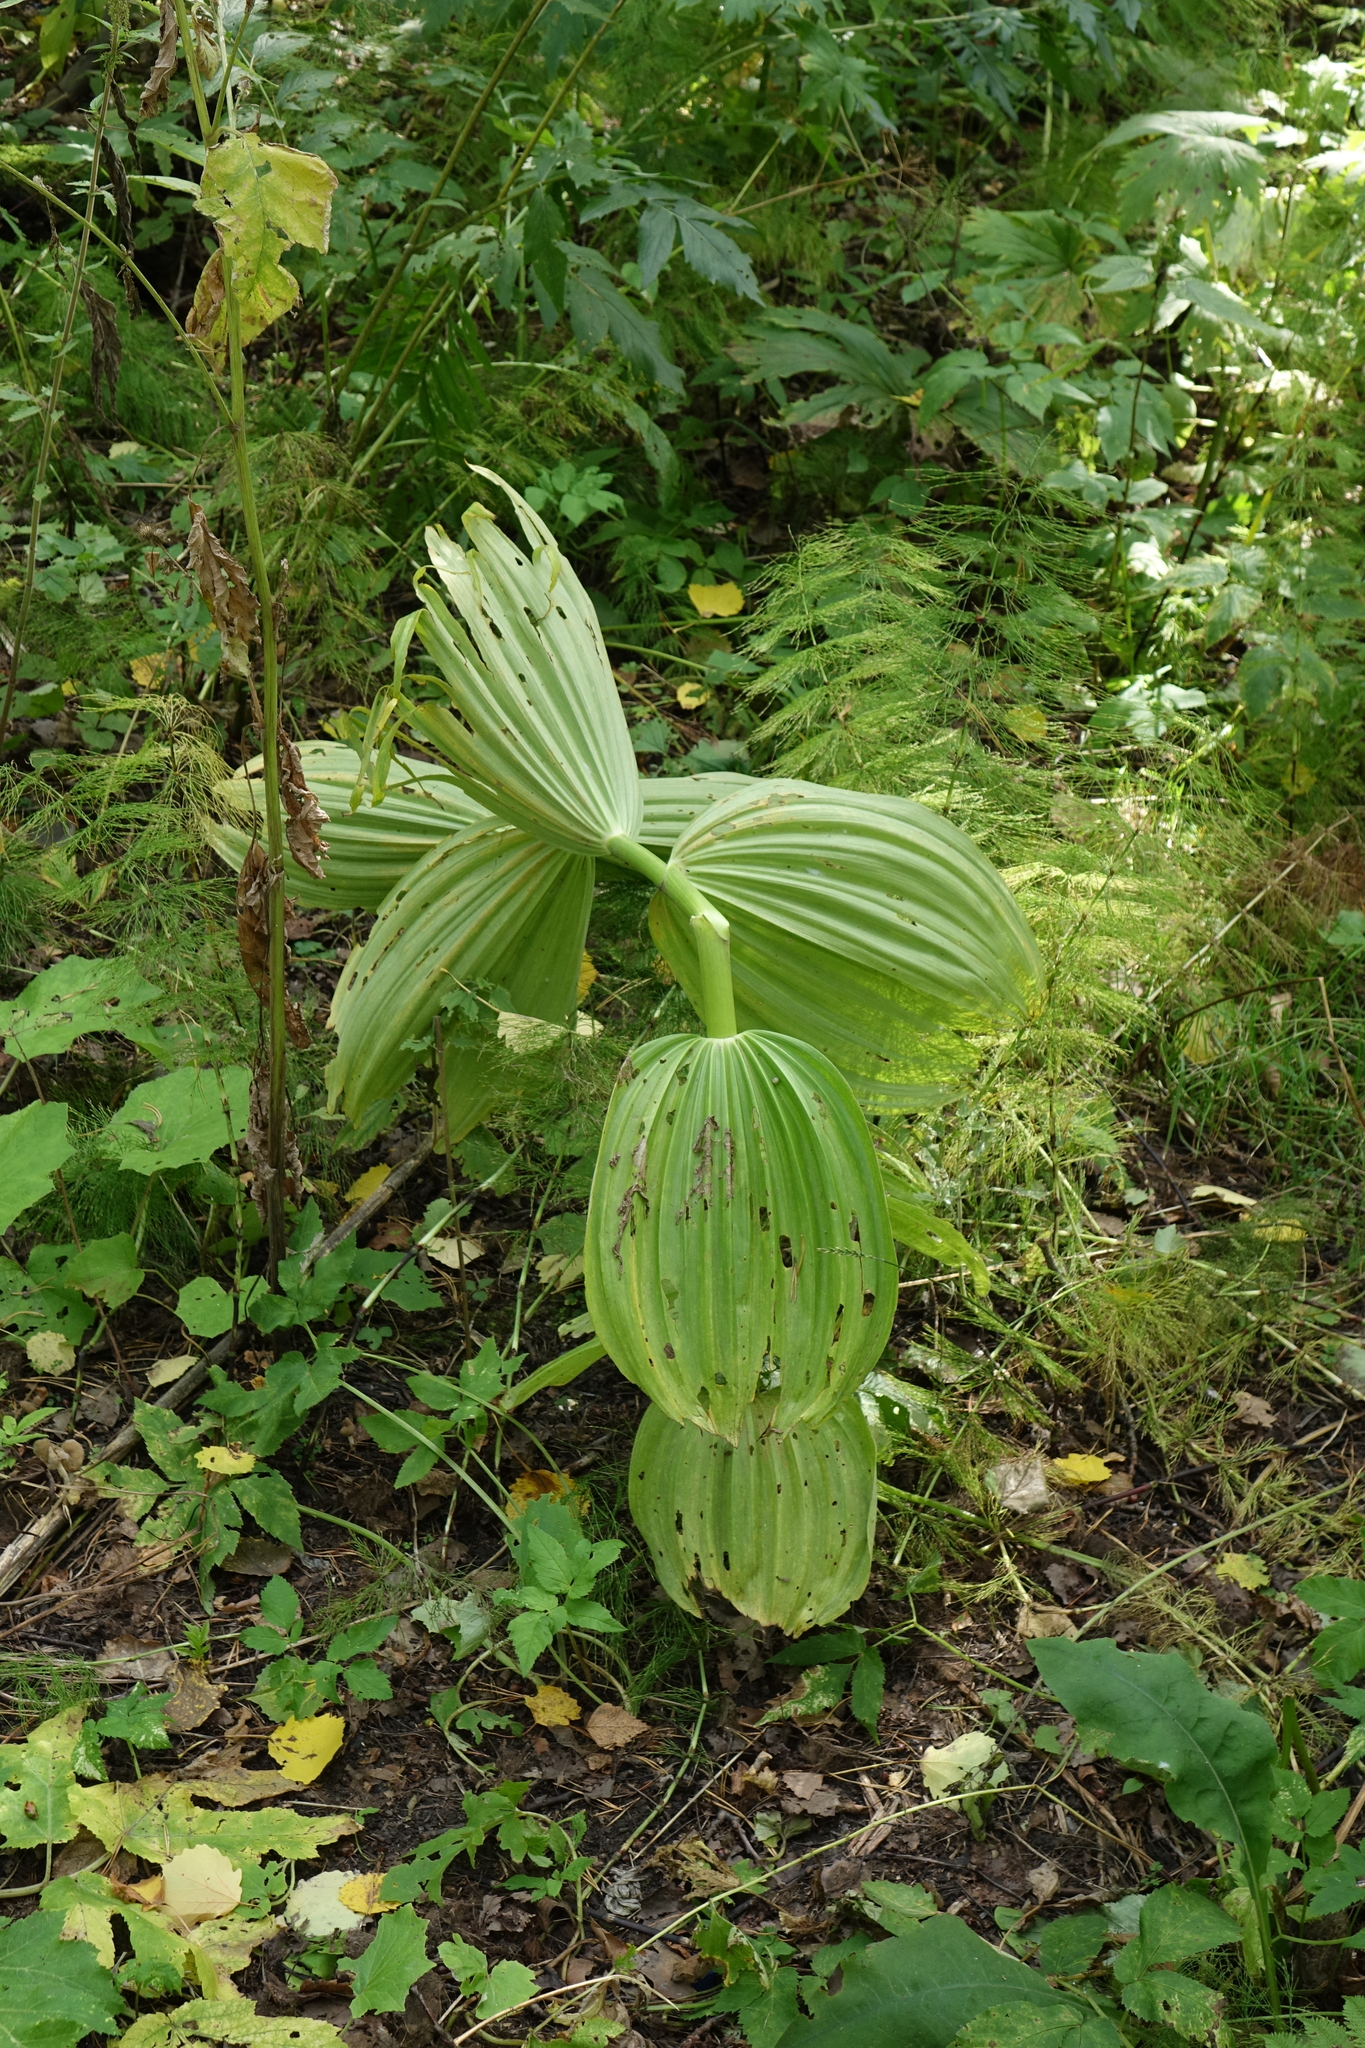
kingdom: Plantae
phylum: Tracheophyta
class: Liliopsida
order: Liliales
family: Melanthiaceae
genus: Veratrum
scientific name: Veratrum lobelianum
